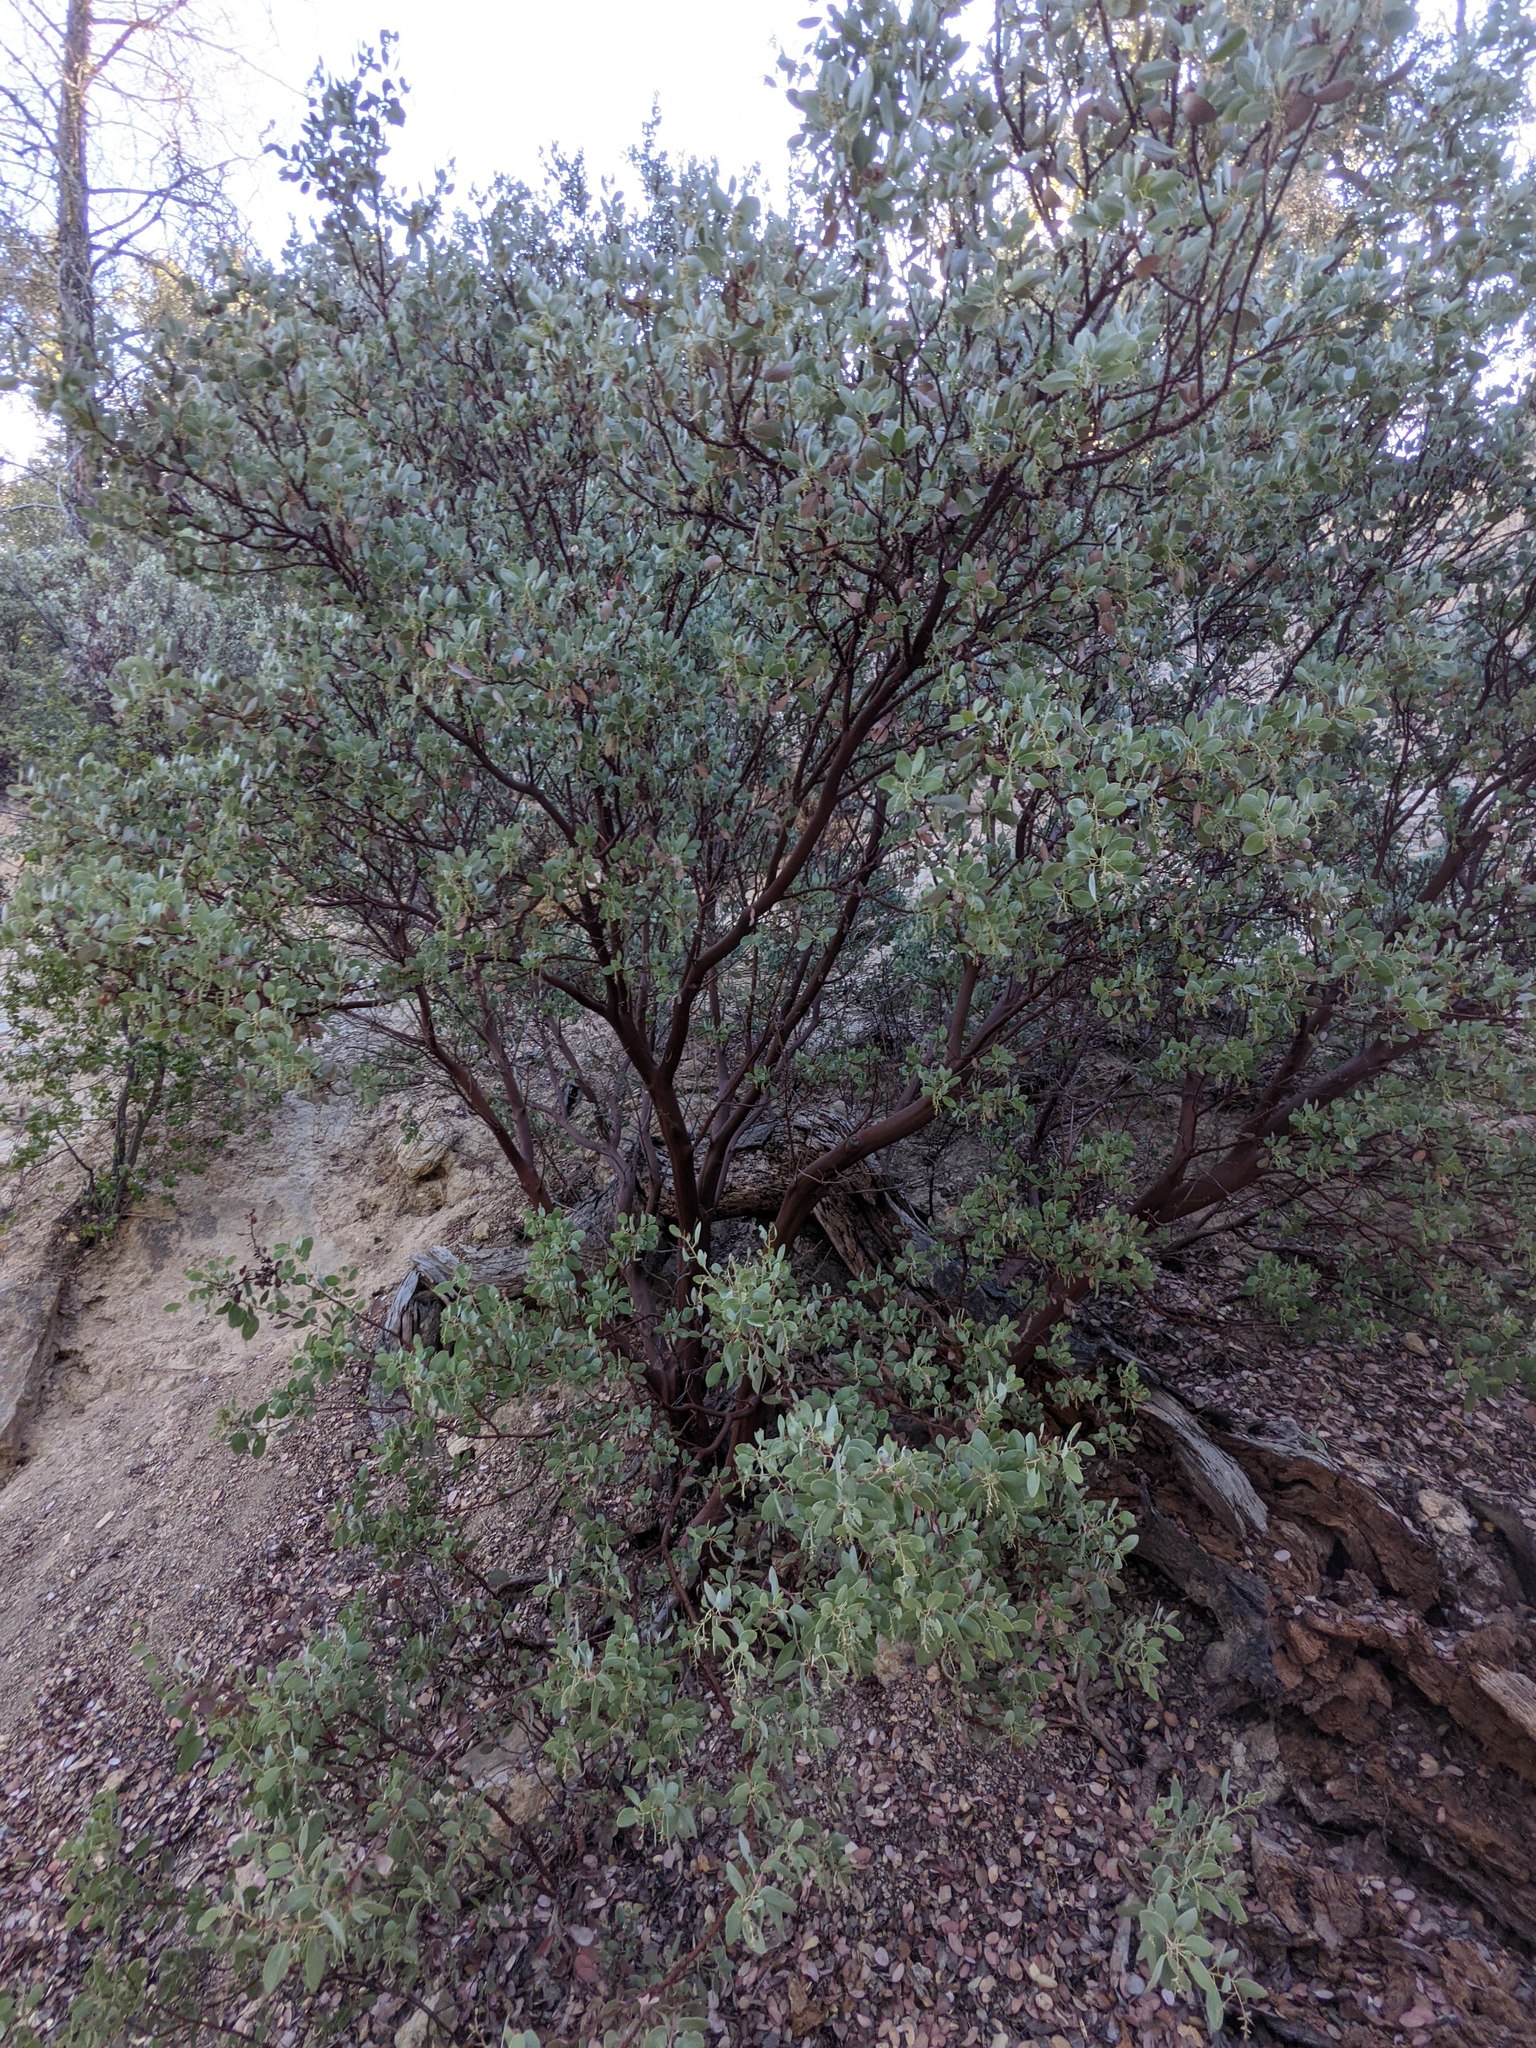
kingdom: Plantae
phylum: Tracheophyta
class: Magnoliopsida
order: Ericales
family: Ericaceae
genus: Arctostaphylos
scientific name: Arctostaphylos glauca
